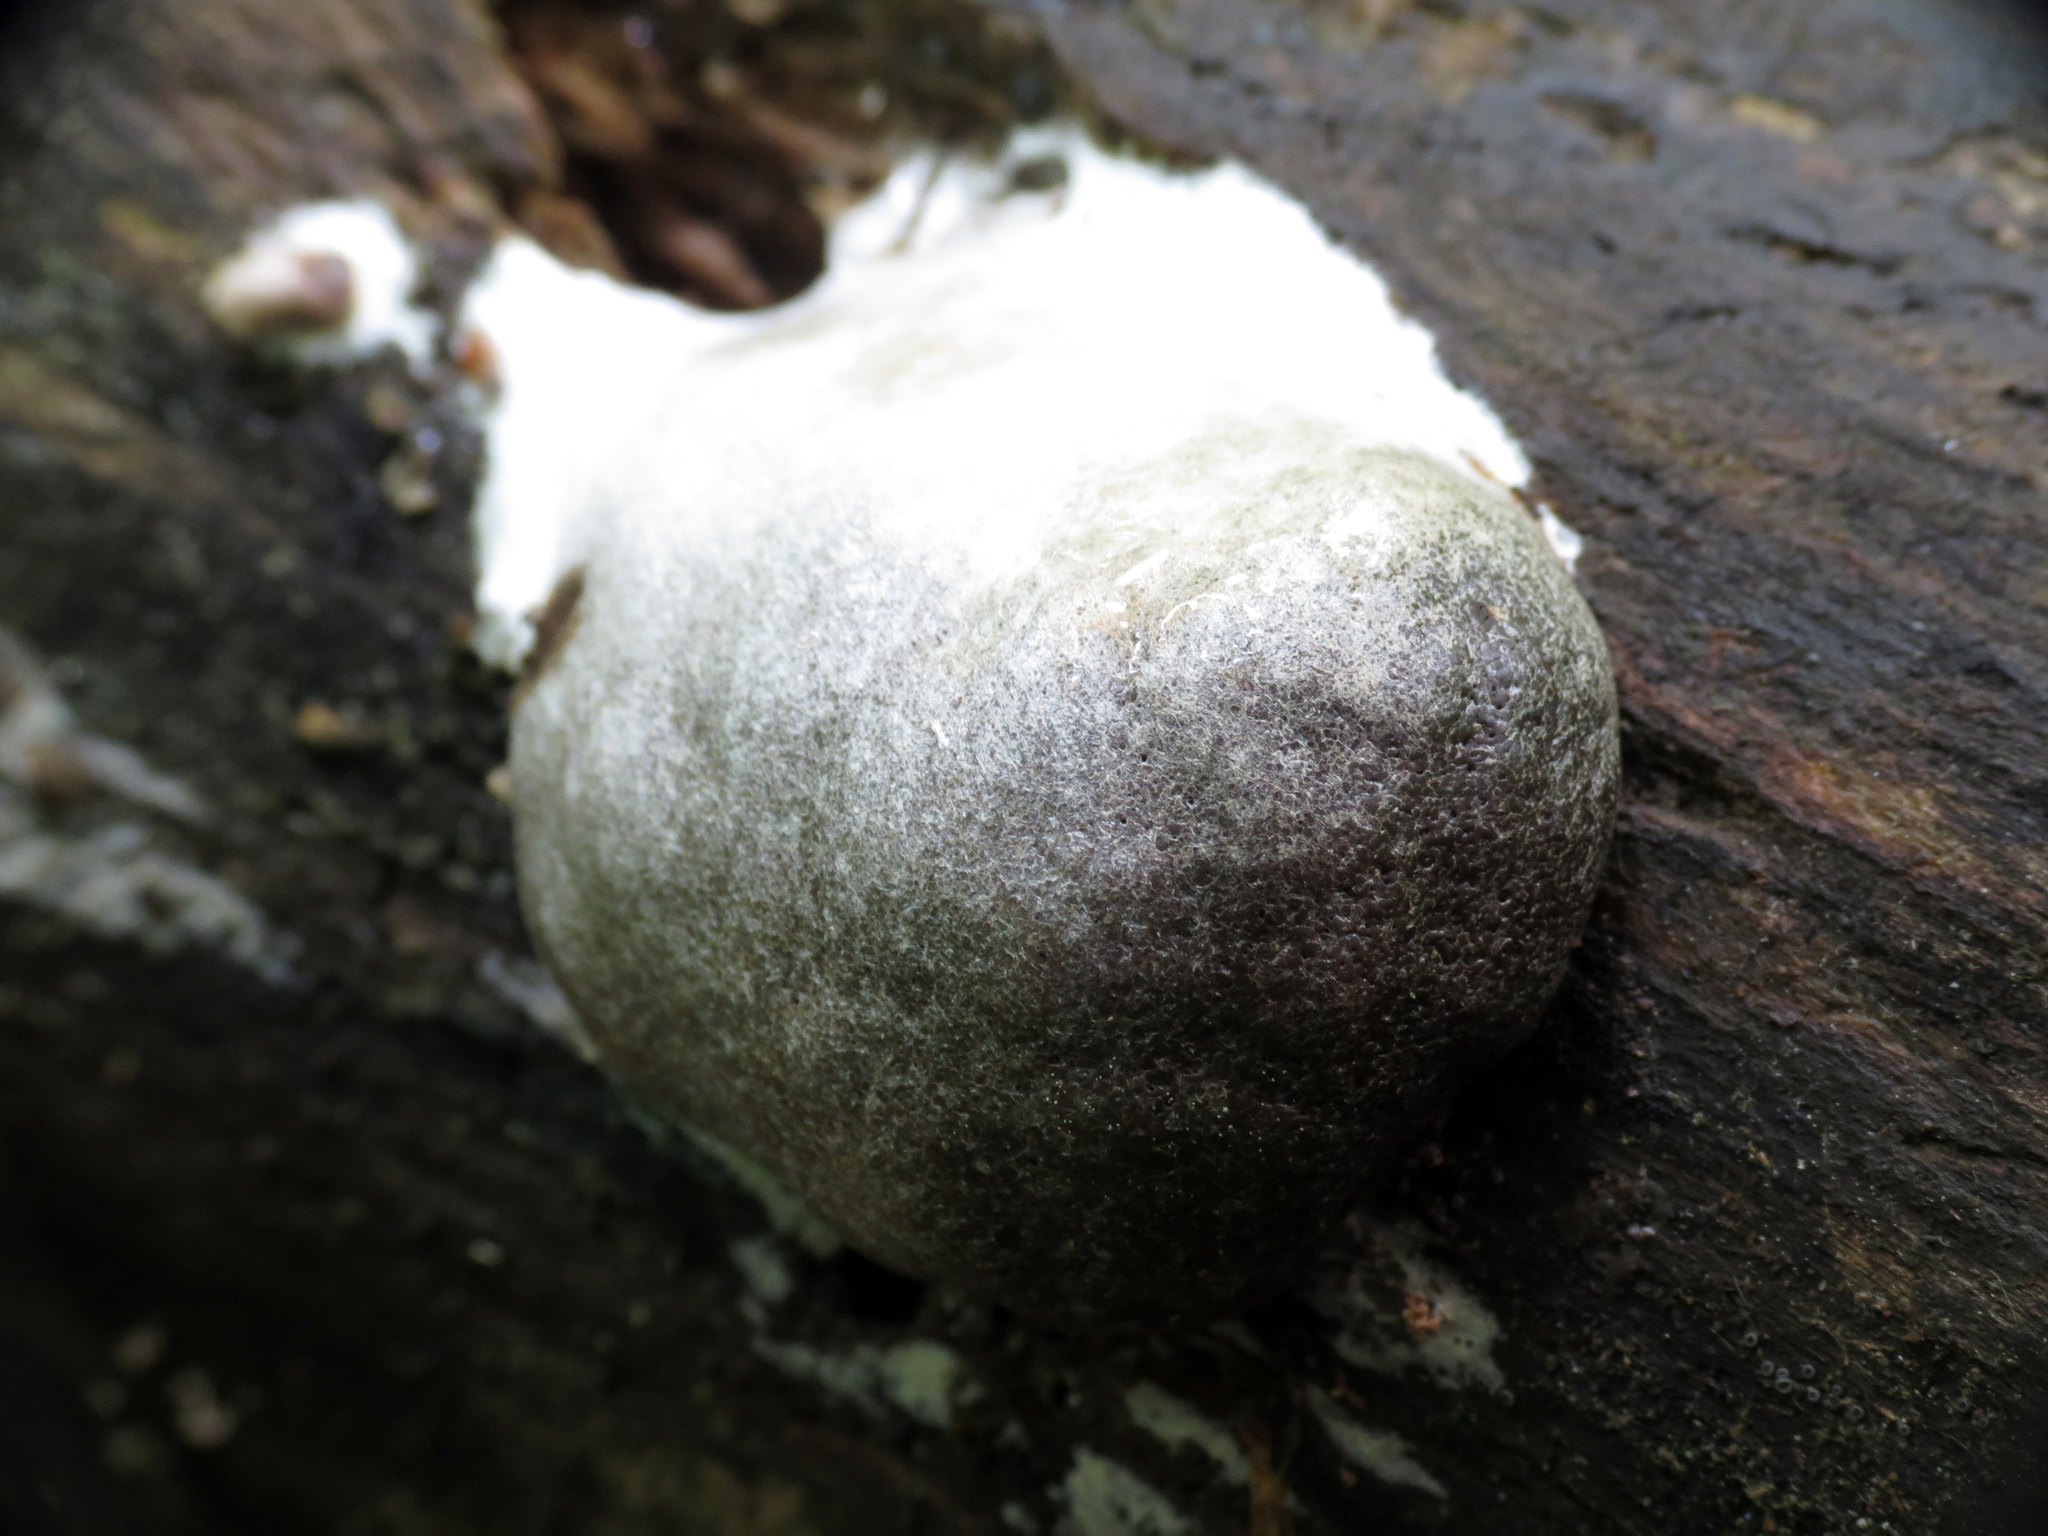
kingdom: Protozoa
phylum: Mycetozoa
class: Myxomycetes
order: Cribrariales
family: Tubiferaceae
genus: Reticularia
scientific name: Reticularia lycoperdon
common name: False puffball
